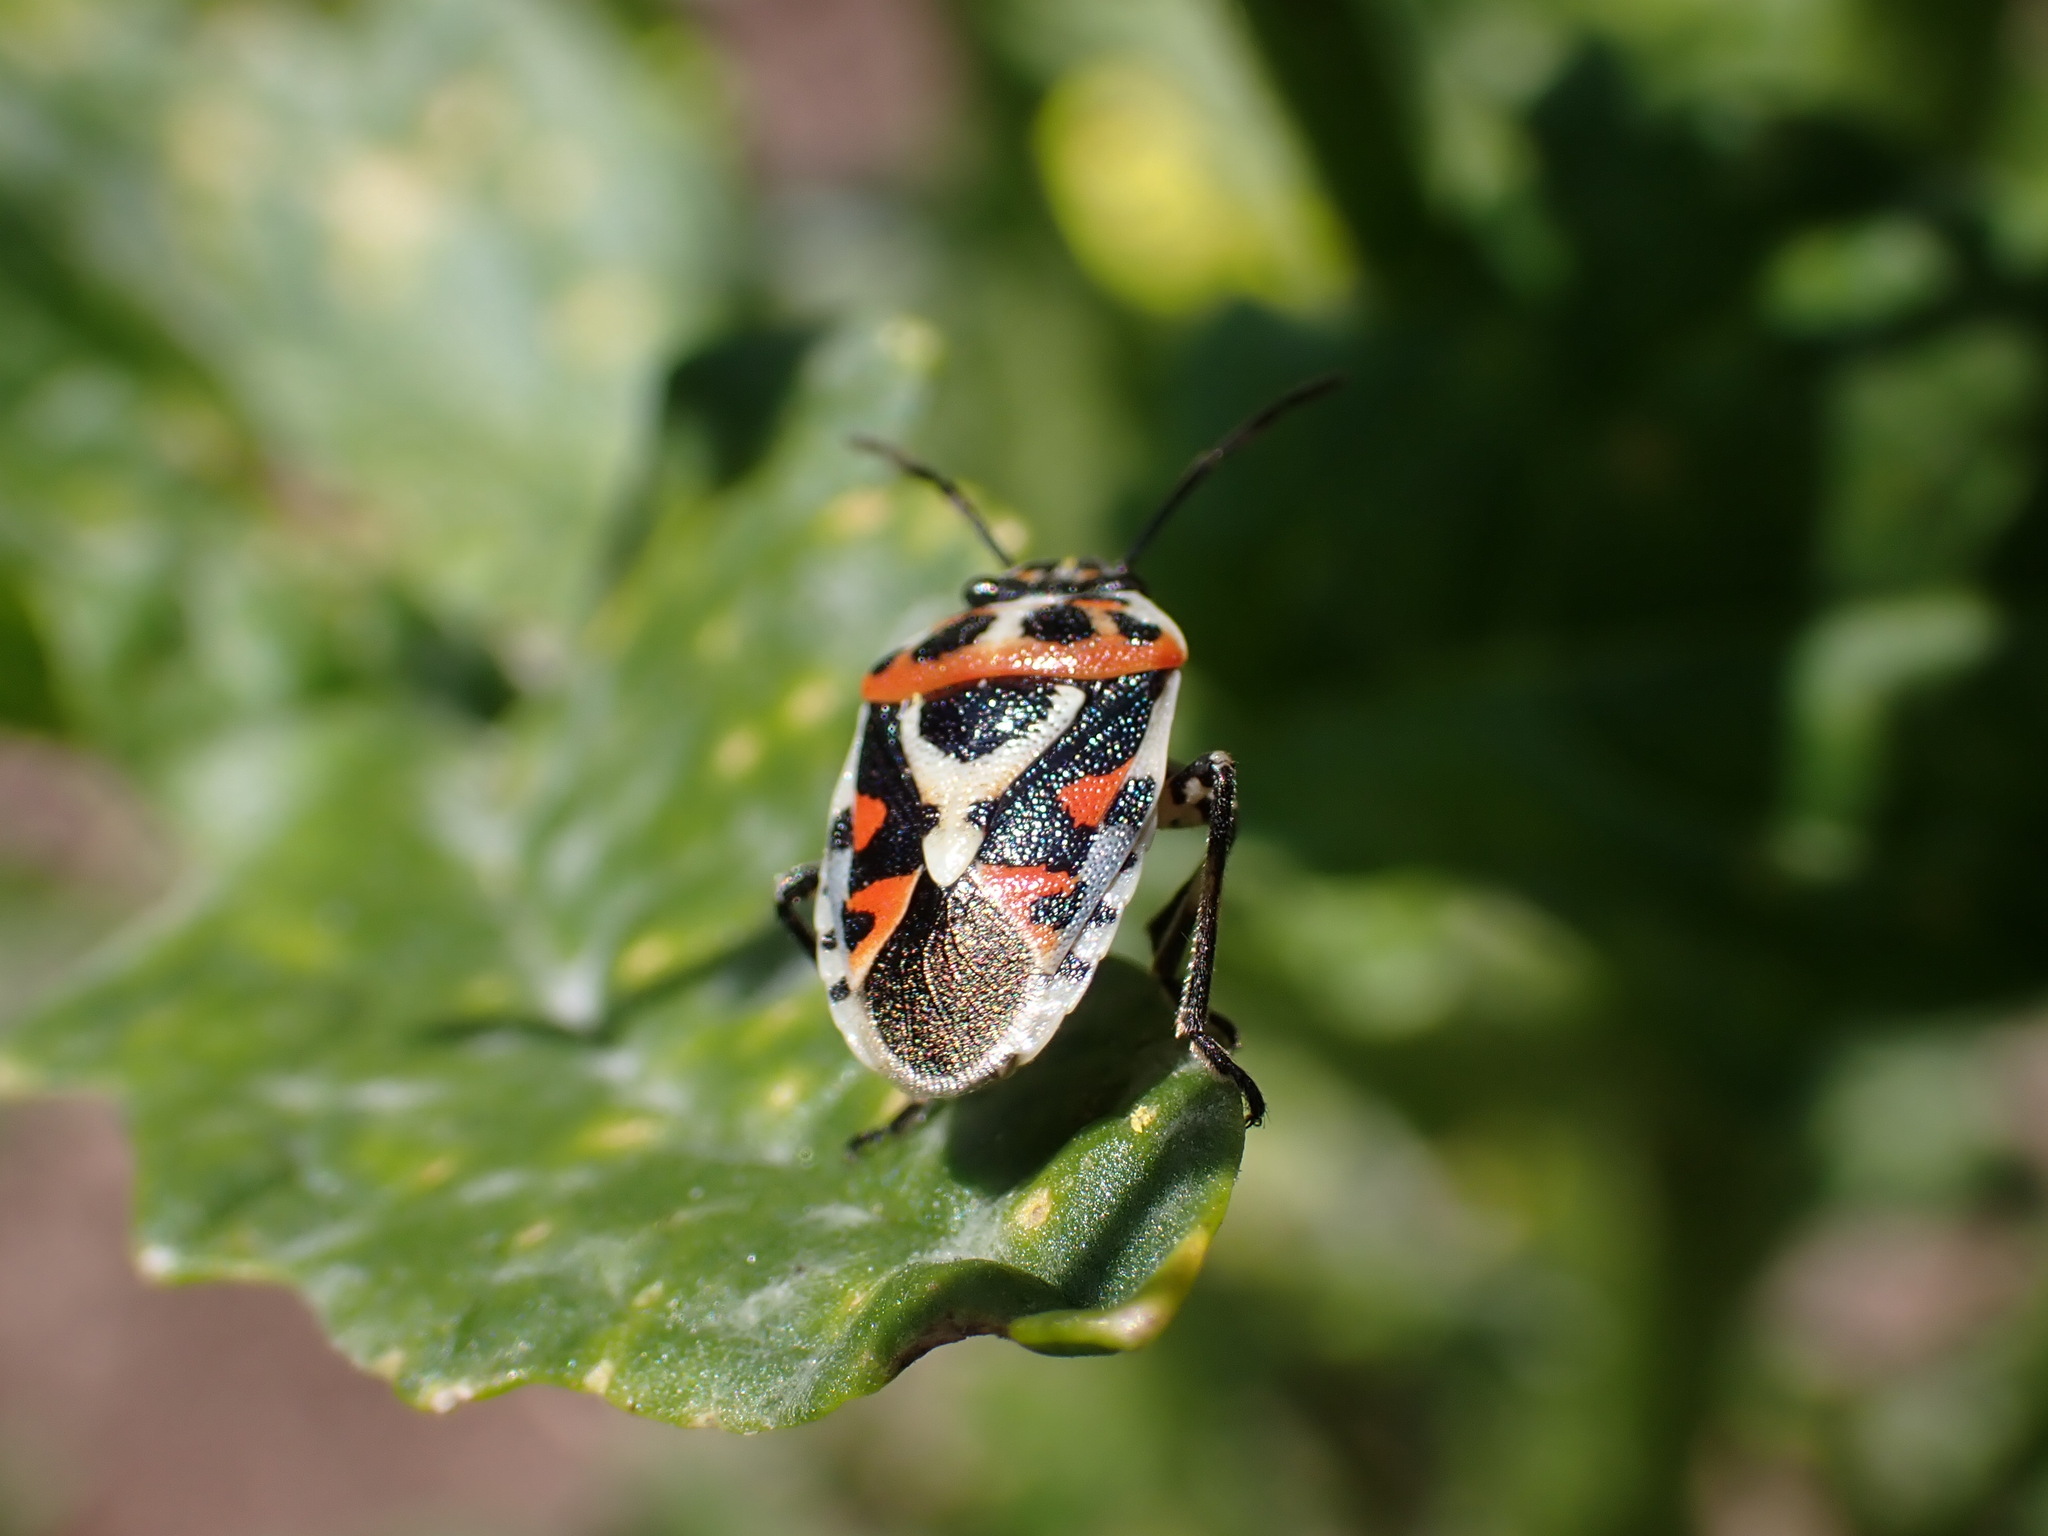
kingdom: Animalia
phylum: Arthropoda
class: Insecta
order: Hemiptera
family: Pentatomidae
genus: Eurydema
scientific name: Eurydema ornata
